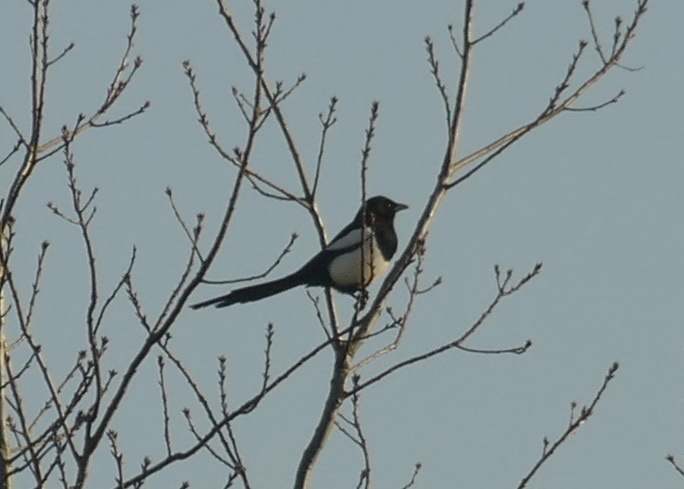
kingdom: Animalia
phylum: Chordata
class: Aves
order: Passeriformes
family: Corvidae
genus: Pica
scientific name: Pica pica
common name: Eurasian magpie
